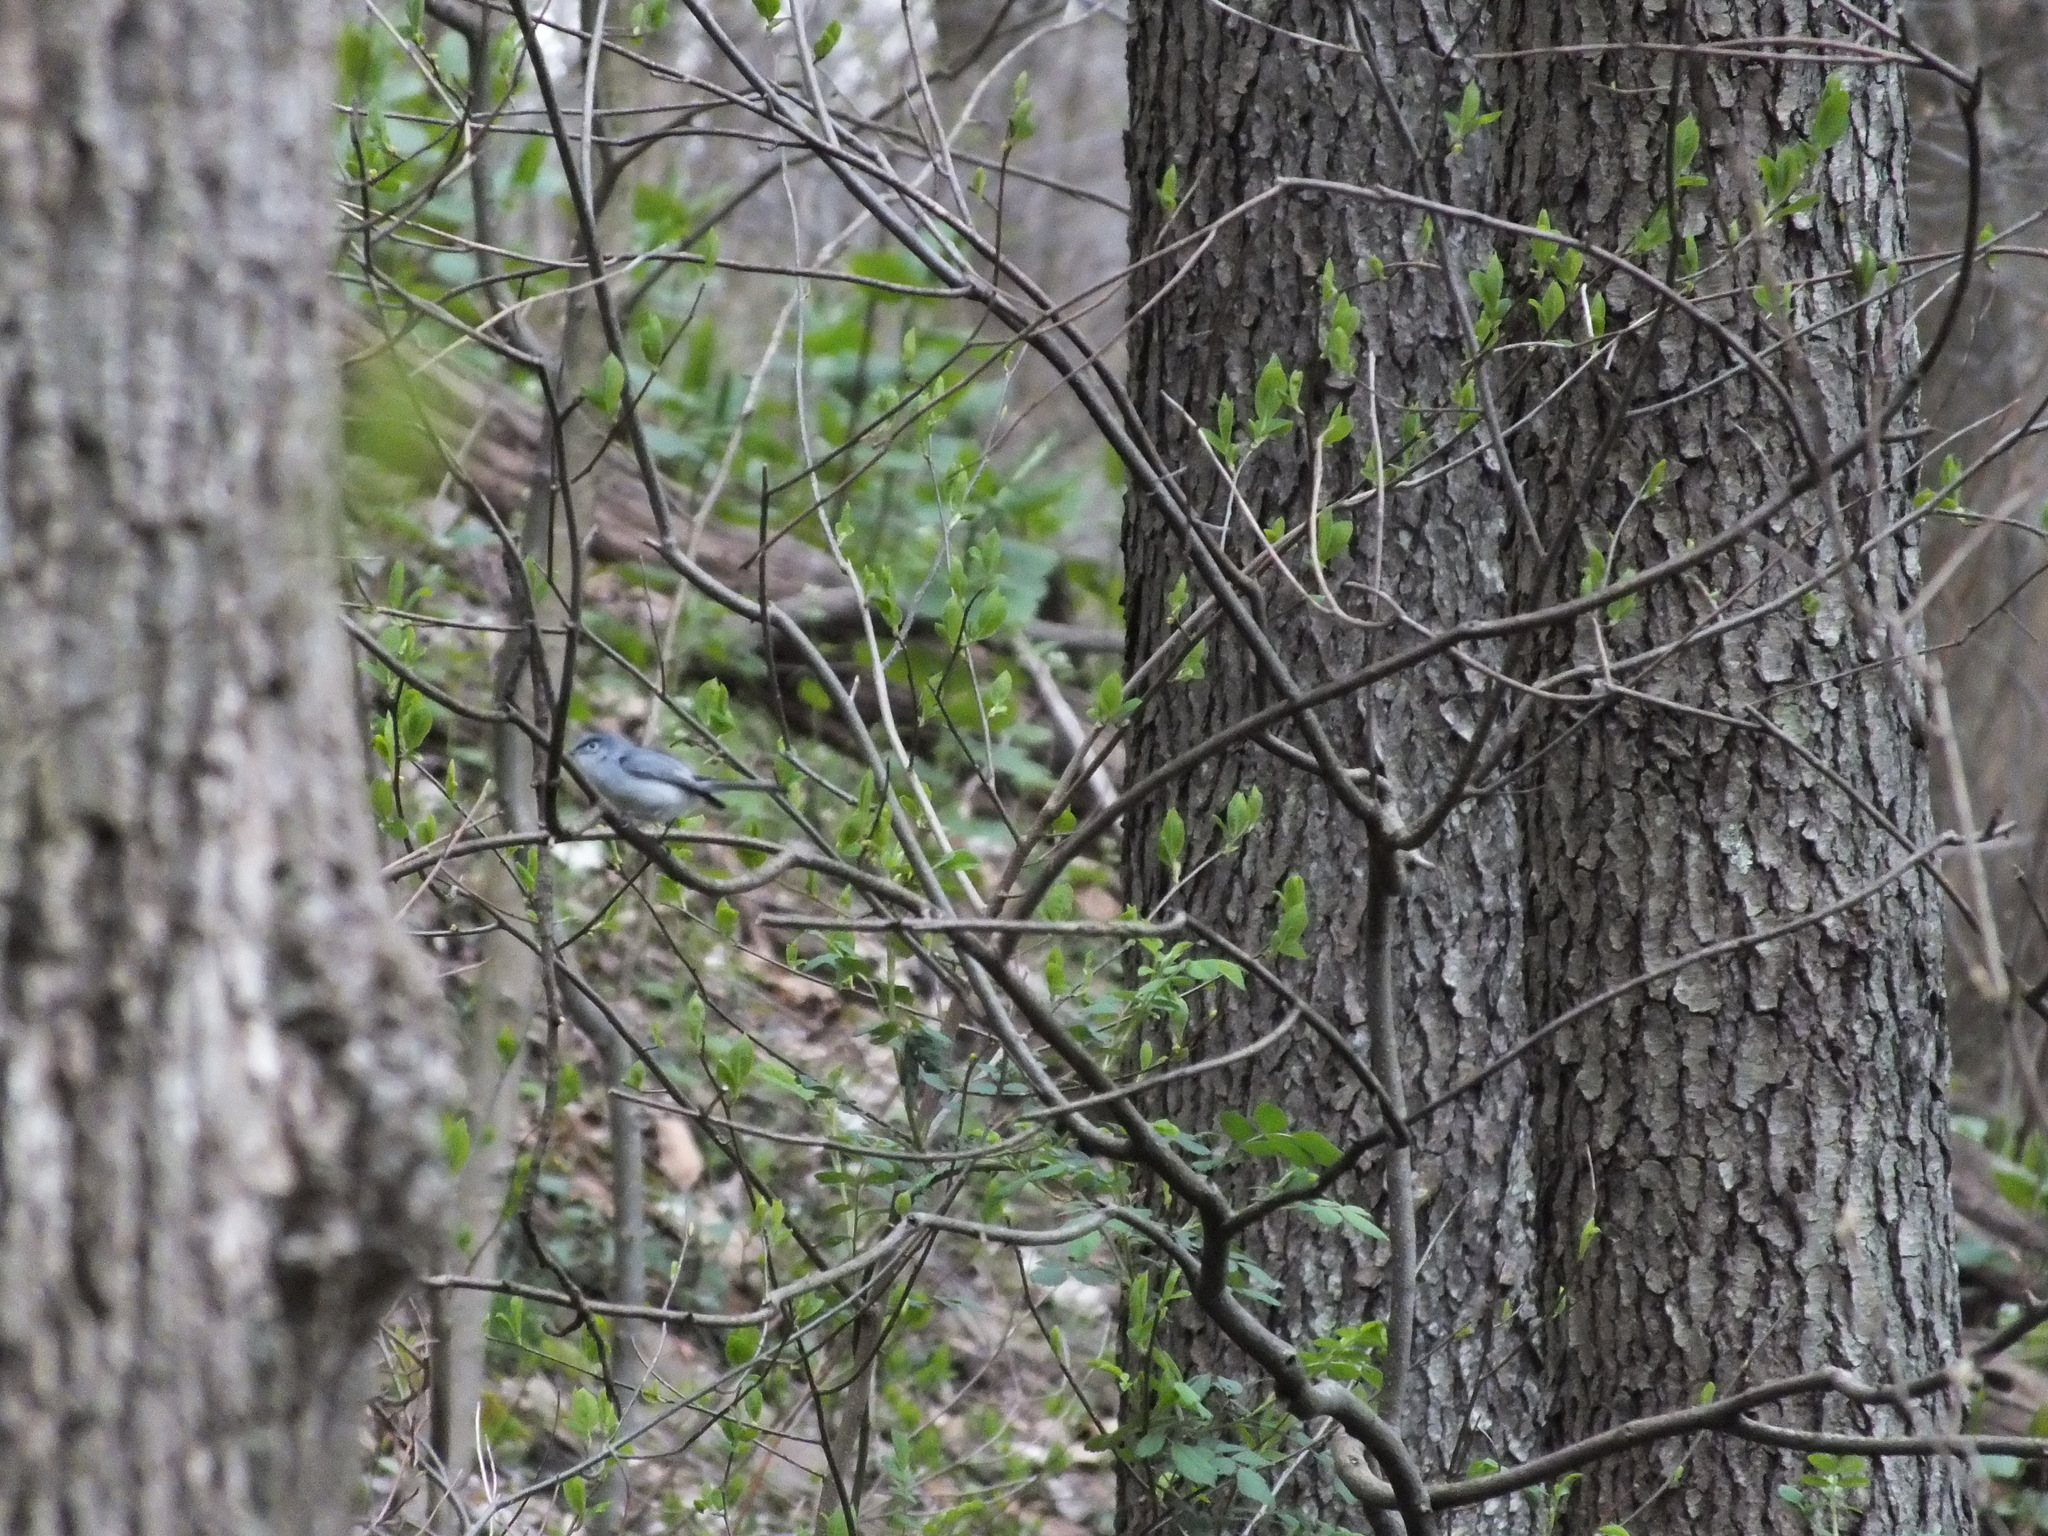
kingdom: Animalia
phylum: Chordata
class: Aves
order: Passeriformes
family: Polioptilidae
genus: Polioptila
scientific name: Polioptila caerulea
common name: Blue-gray gnatcatcher
